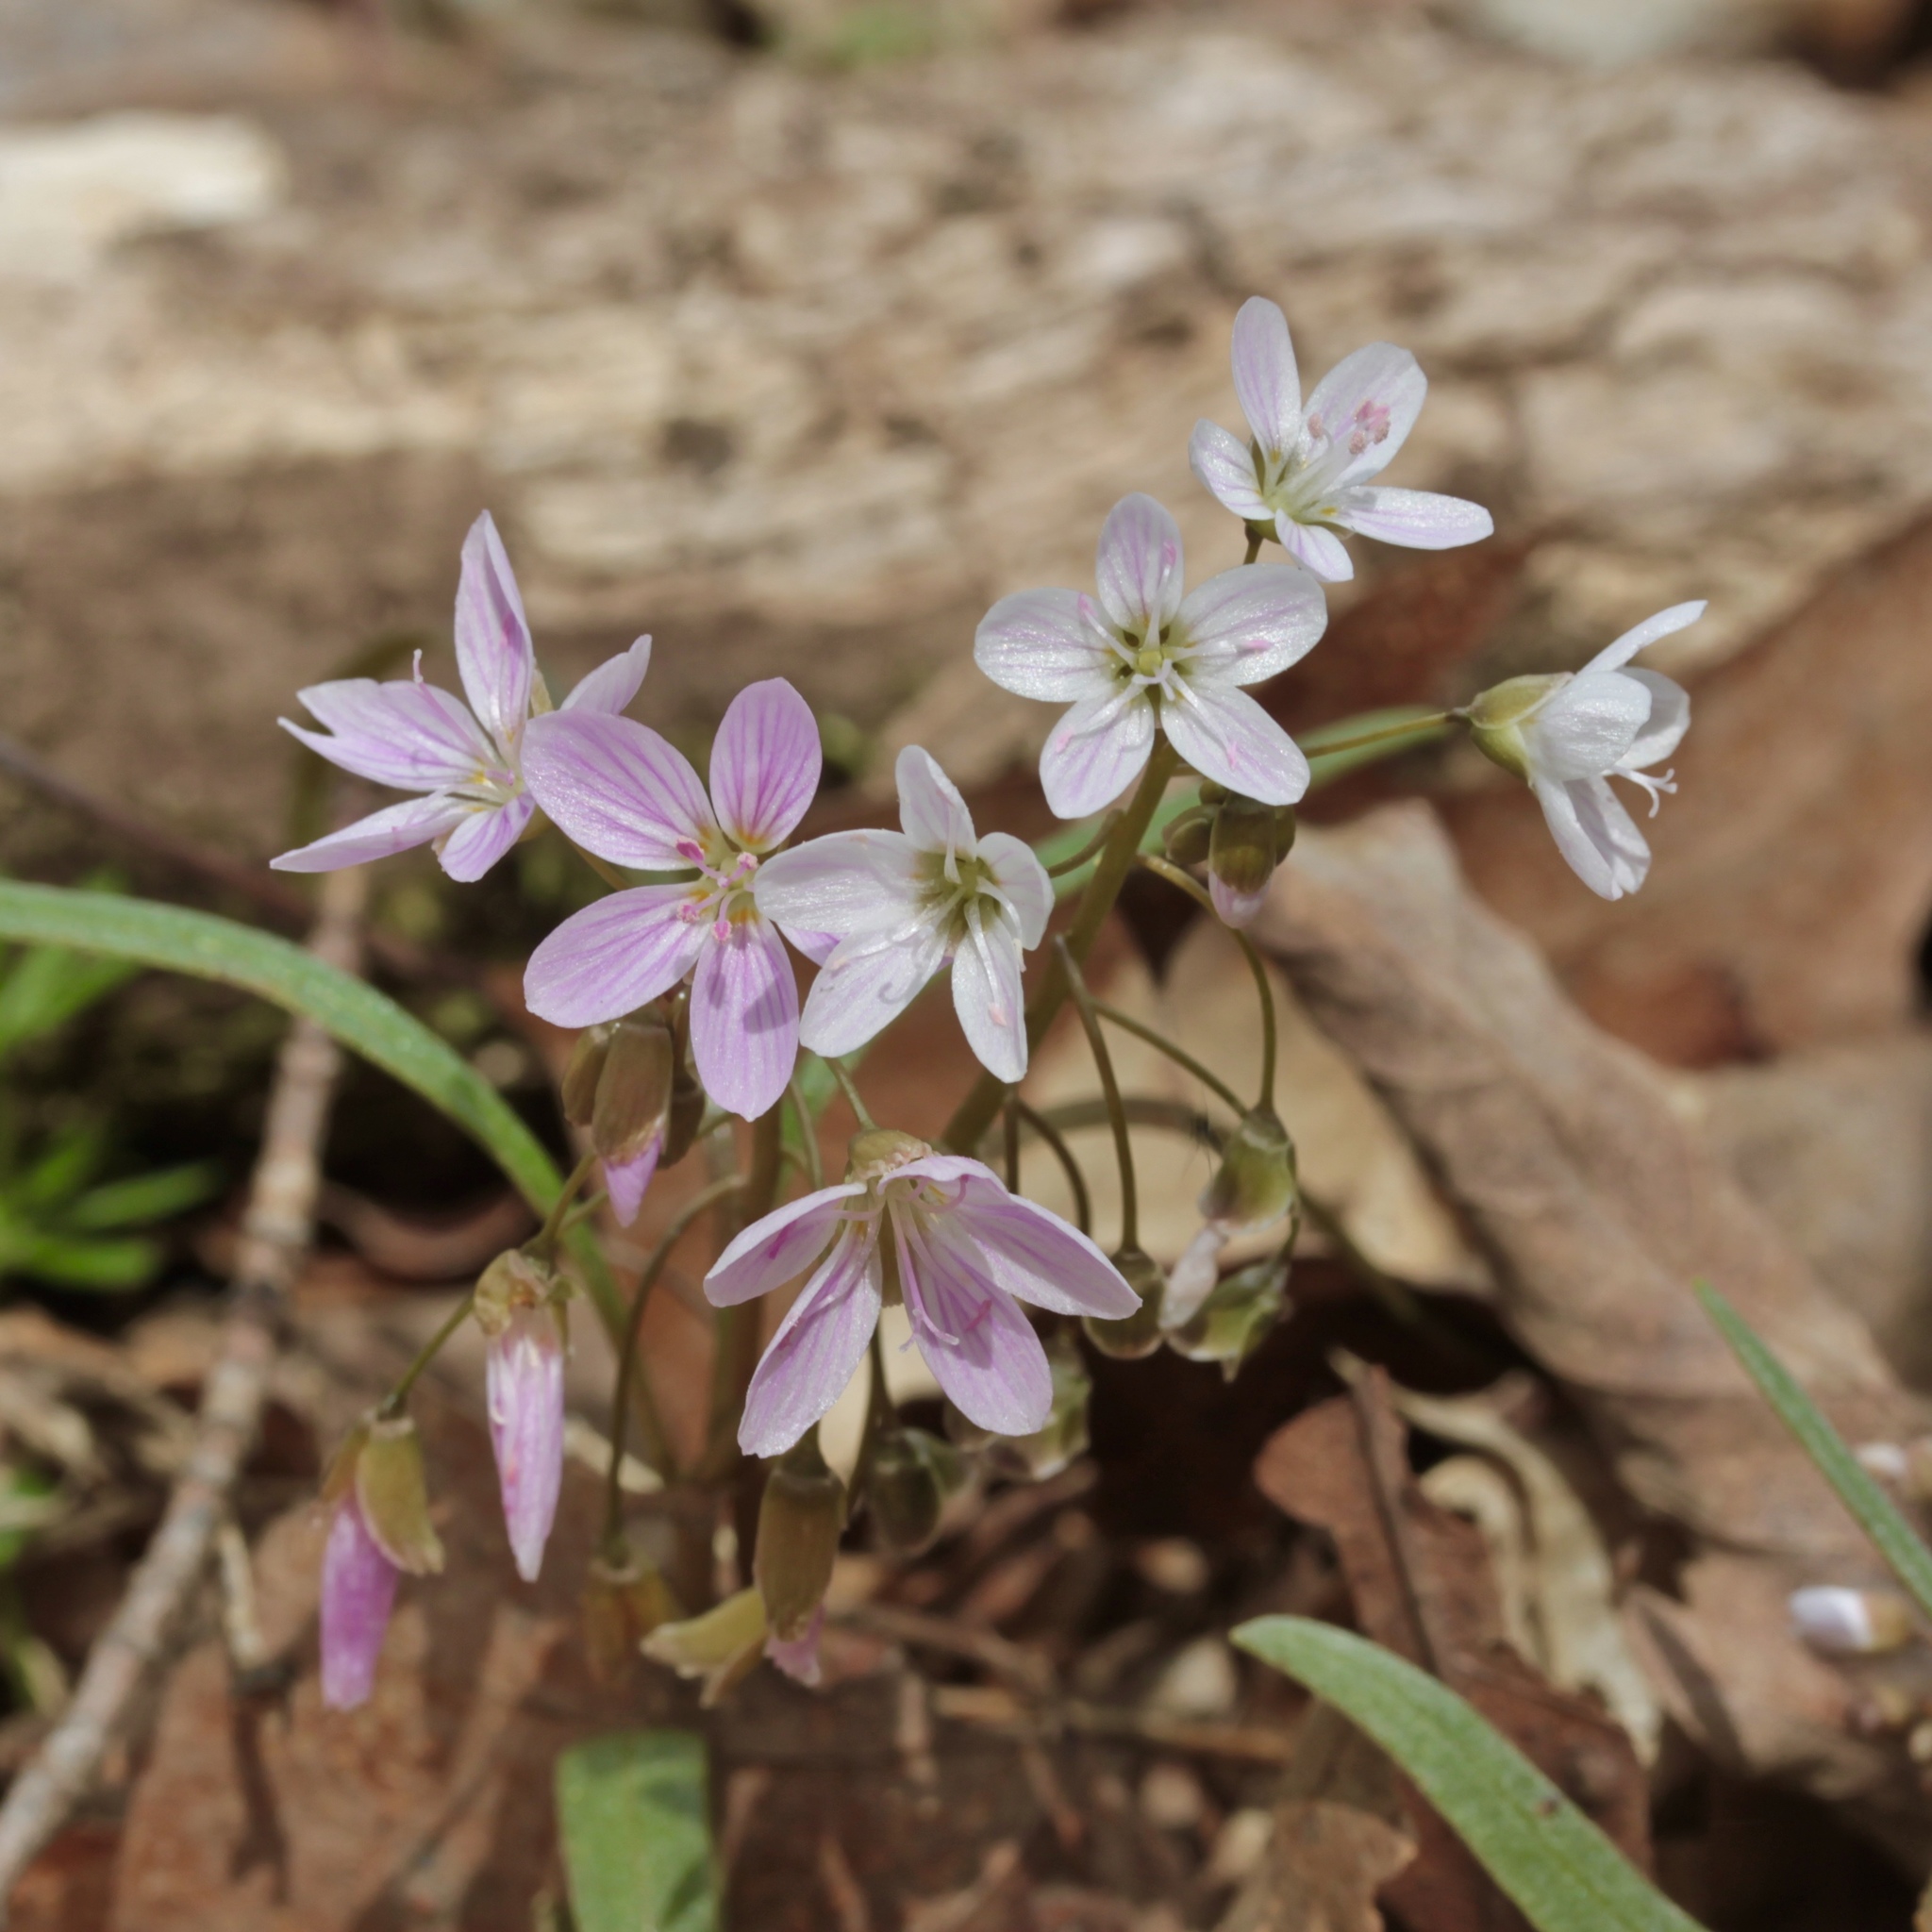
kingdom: Plantae
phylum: Tracheophyta
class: Magnoliopsida
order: Caryophyllales
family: Montiaceae
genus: Claytonia
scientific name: Claytonia virginica
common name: Virginia springbeauty
